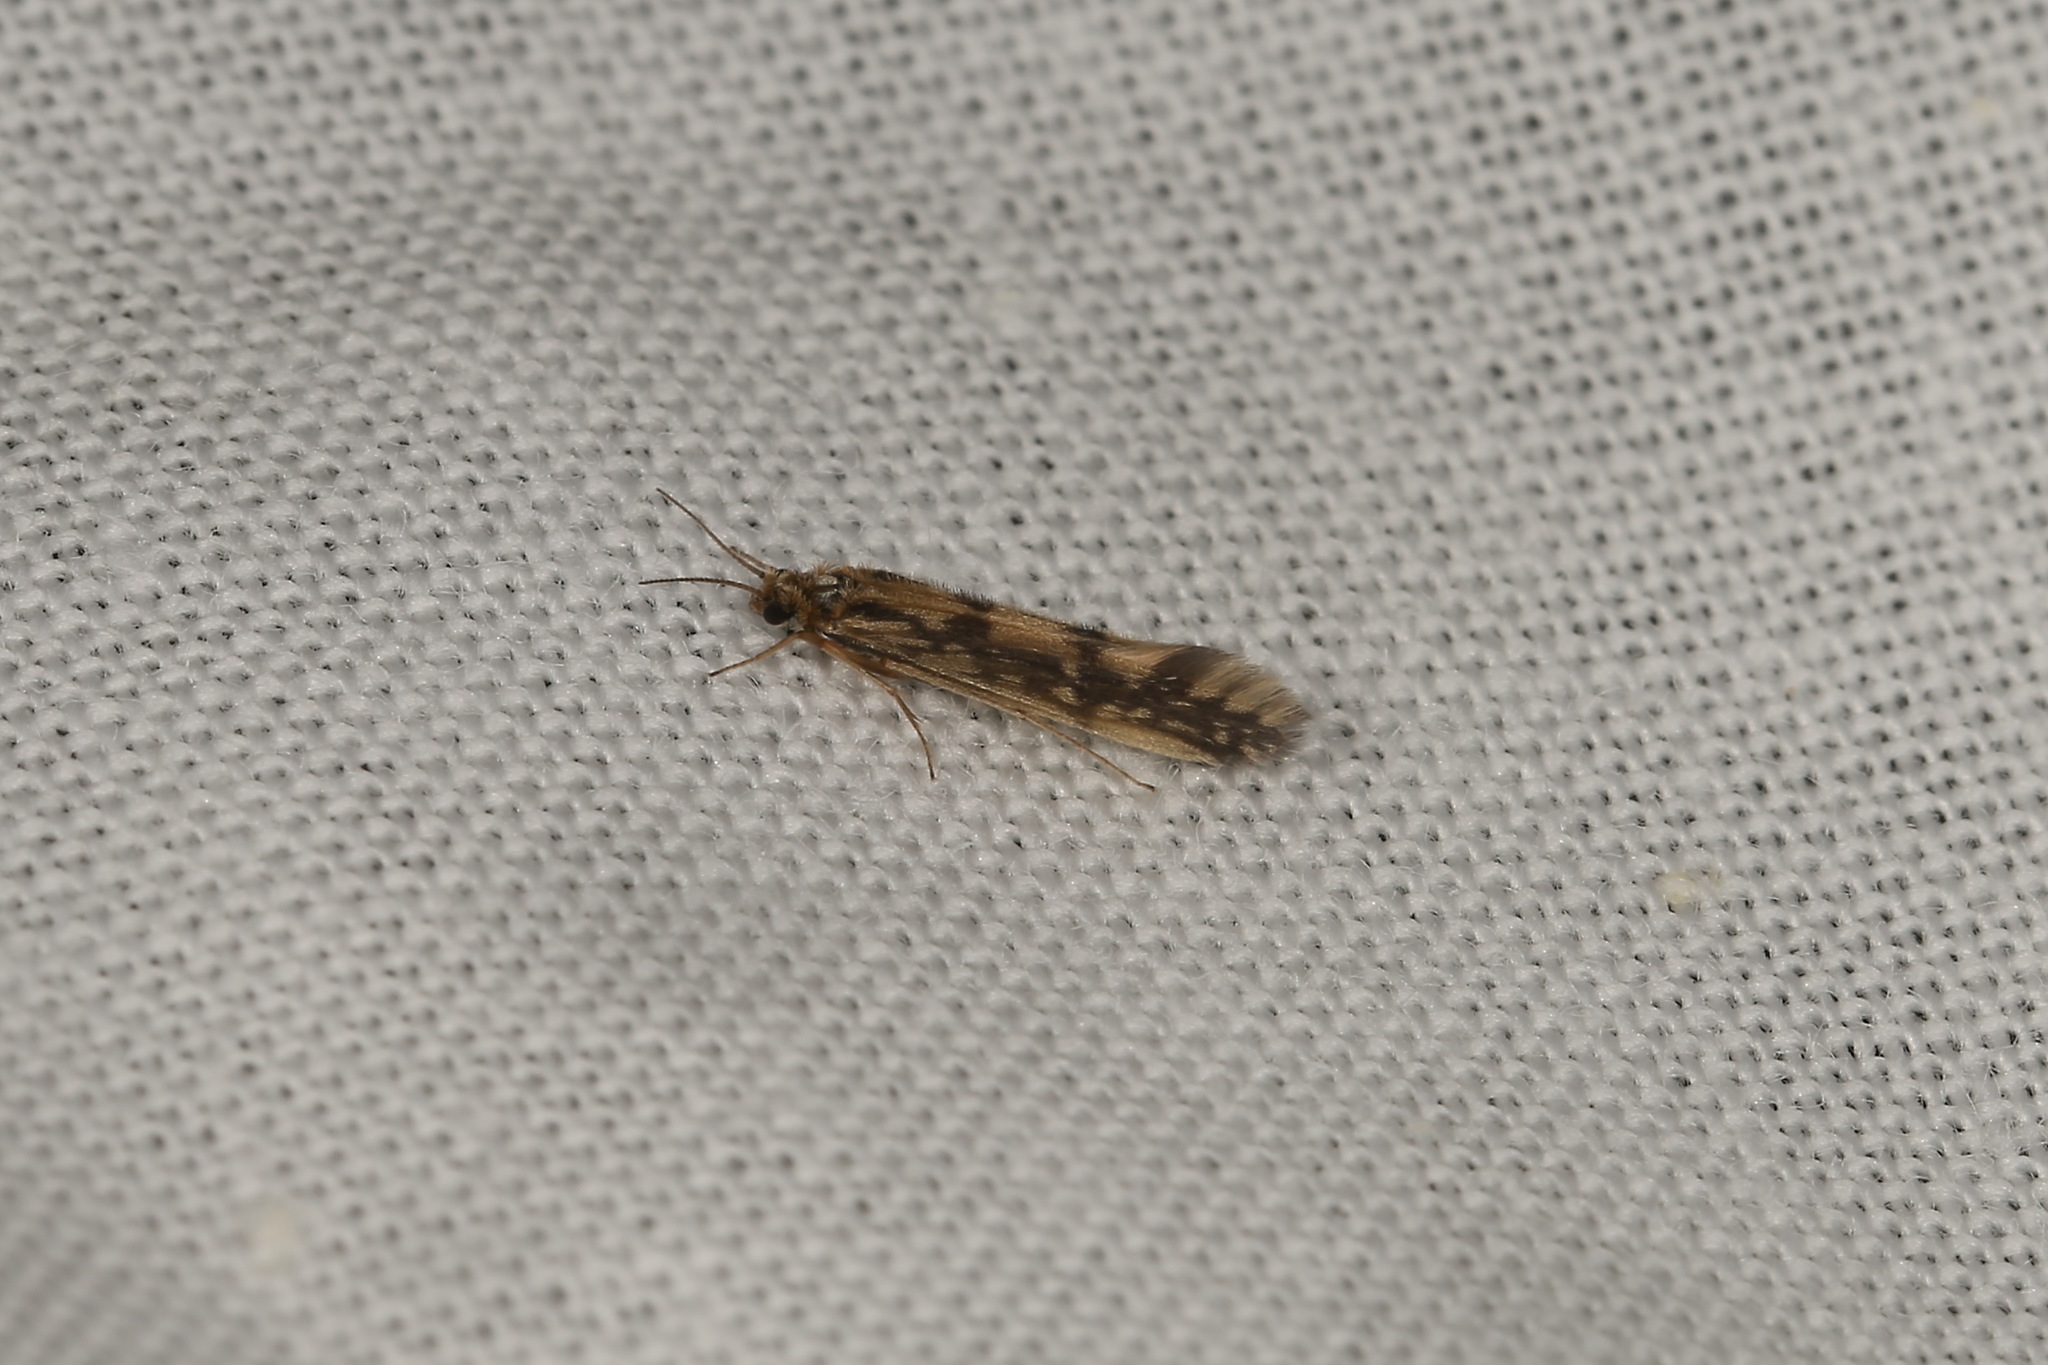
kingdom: Animalia
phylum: Arthropoda
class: Insecta
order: Trichoptera
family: Hydroptilidae
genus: Agraylea
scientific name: Agraylea multipunctata
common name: Salt and pepper microcaddisfly
